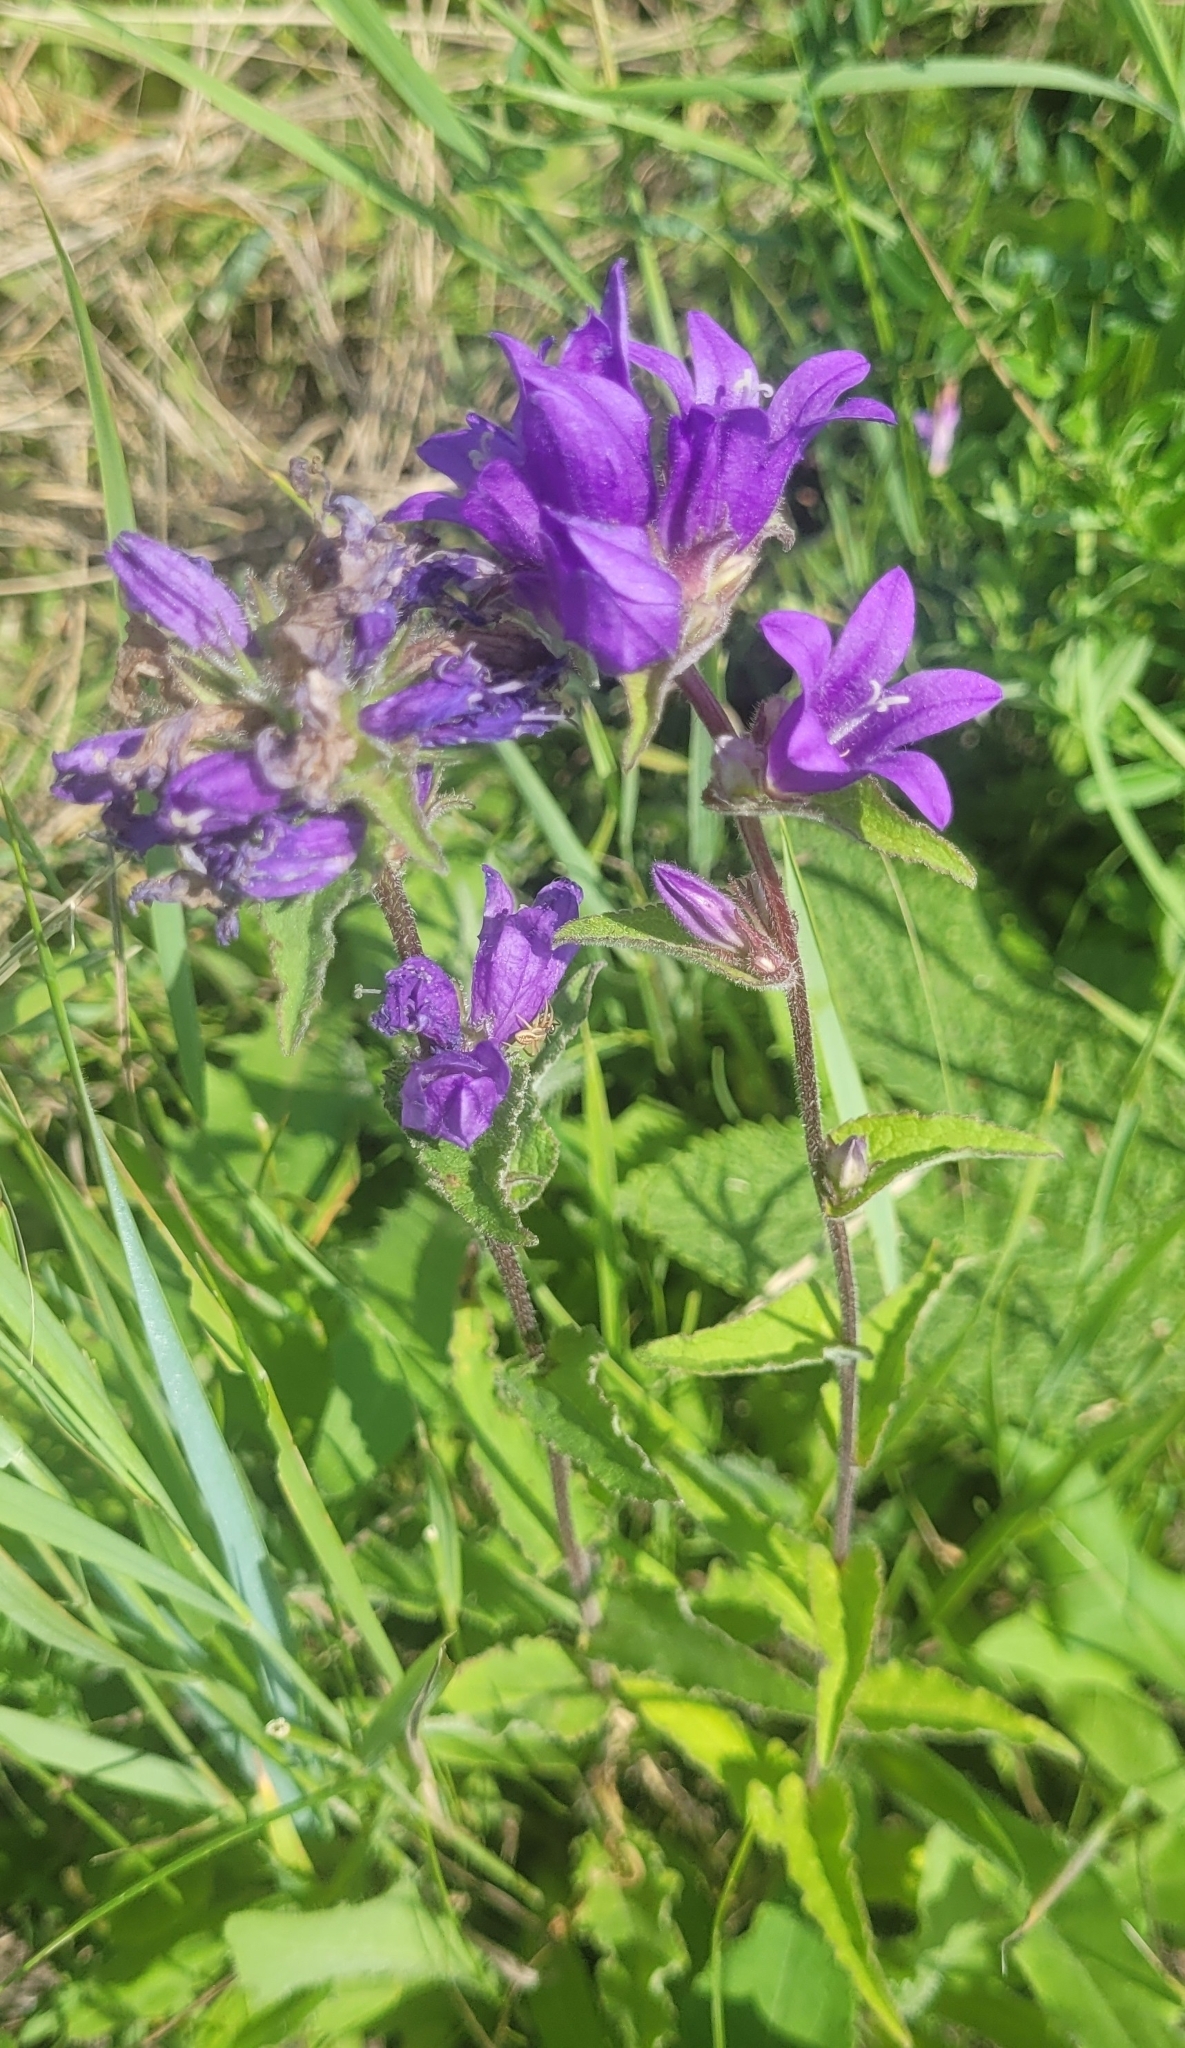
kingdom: Plantae
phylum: Tracheophyta
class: Magnoliopsida
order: Asterales
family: Campanulaceae
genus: Campanula
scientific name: Campanula glomerata
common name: Clustered bellflower
